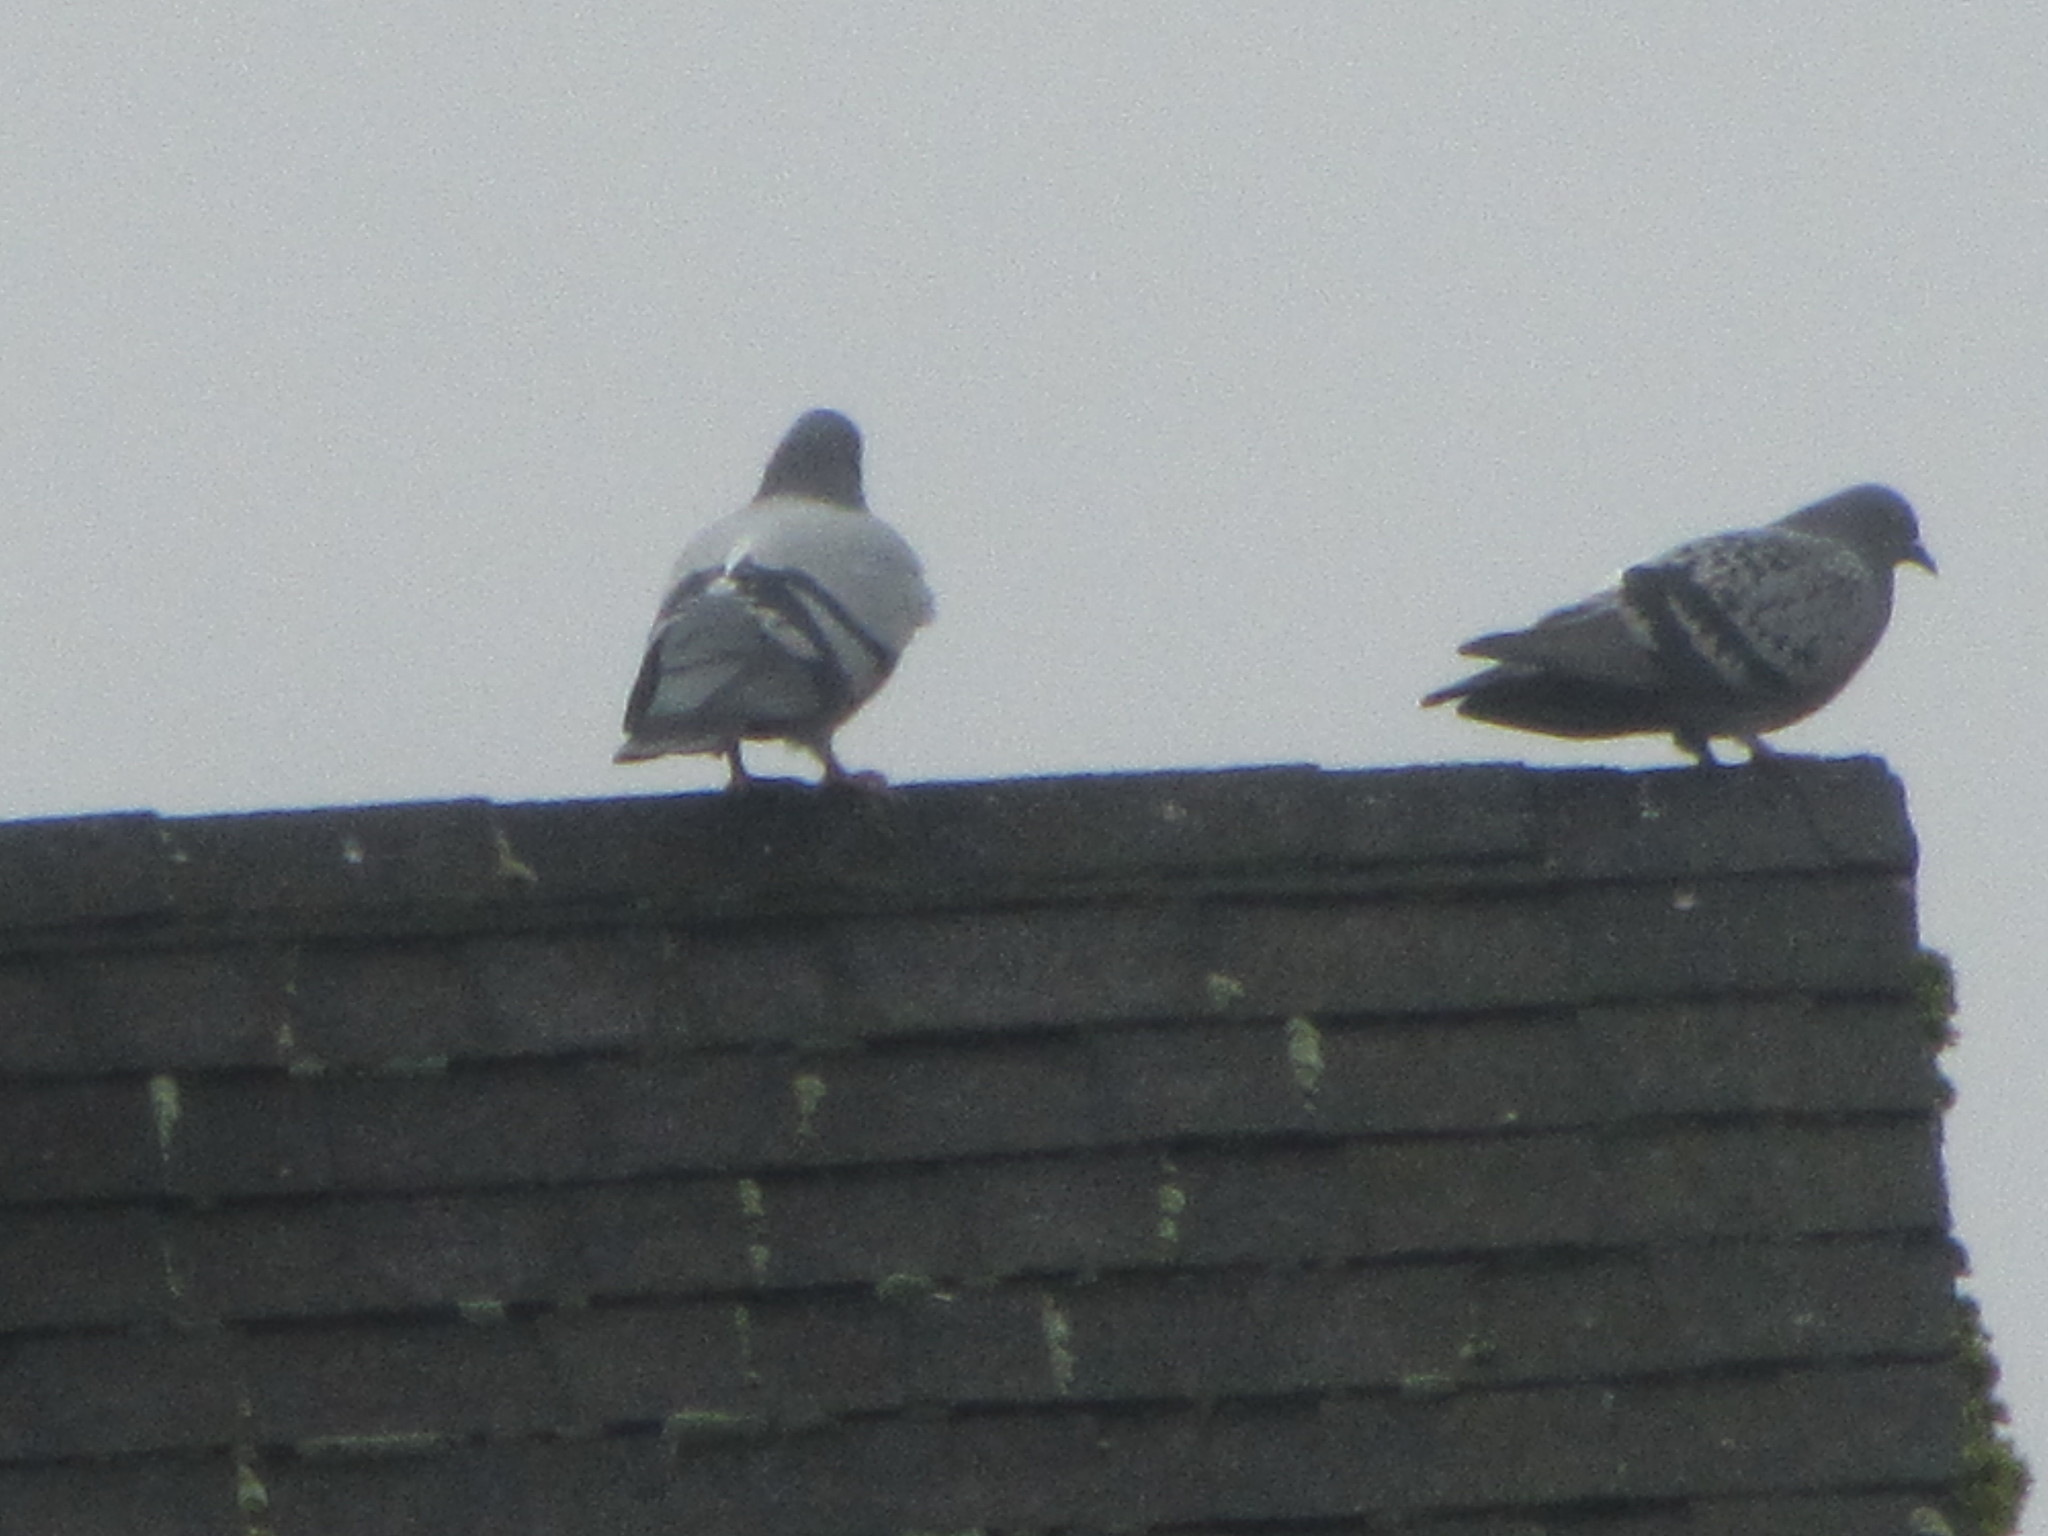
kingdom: Animalia
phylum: Chordata
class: Aves
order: Columbiformes
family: Columbidae
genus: Columba
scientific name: Columba livia
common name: Rock pigeon
